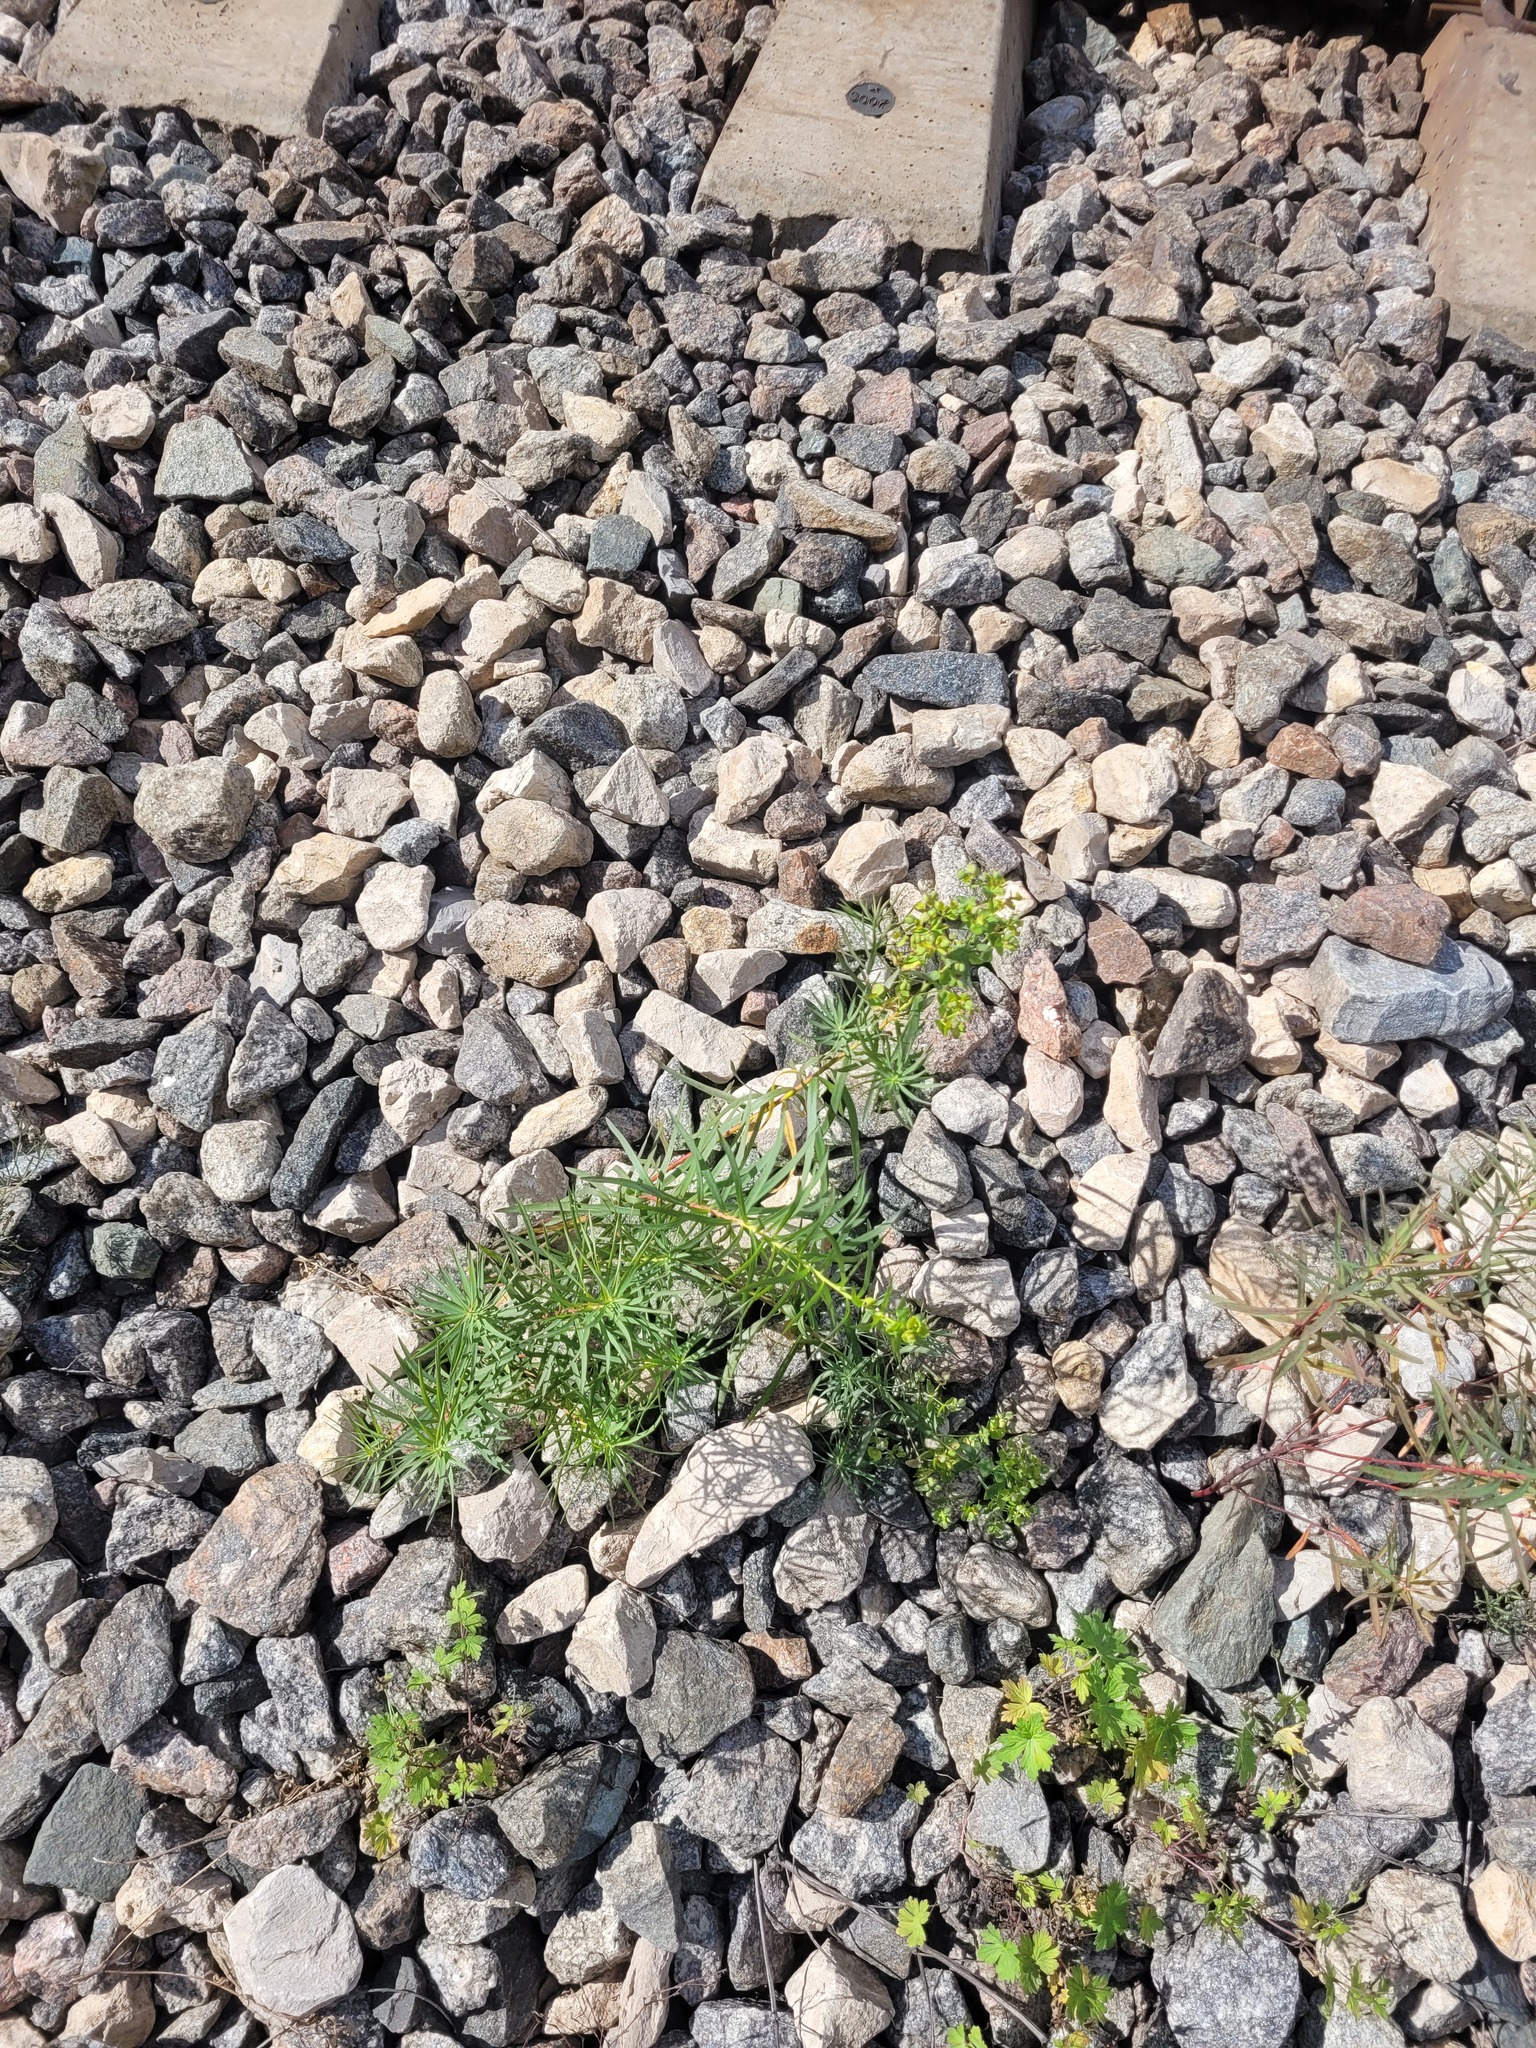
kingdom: Plantae
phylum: Tracheophyta
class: Magnoliopsida
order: Malpighiales
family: Euphorbiaceae
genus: Euphorbia
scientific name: Euphorbia virgata
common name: Leafy spurge
